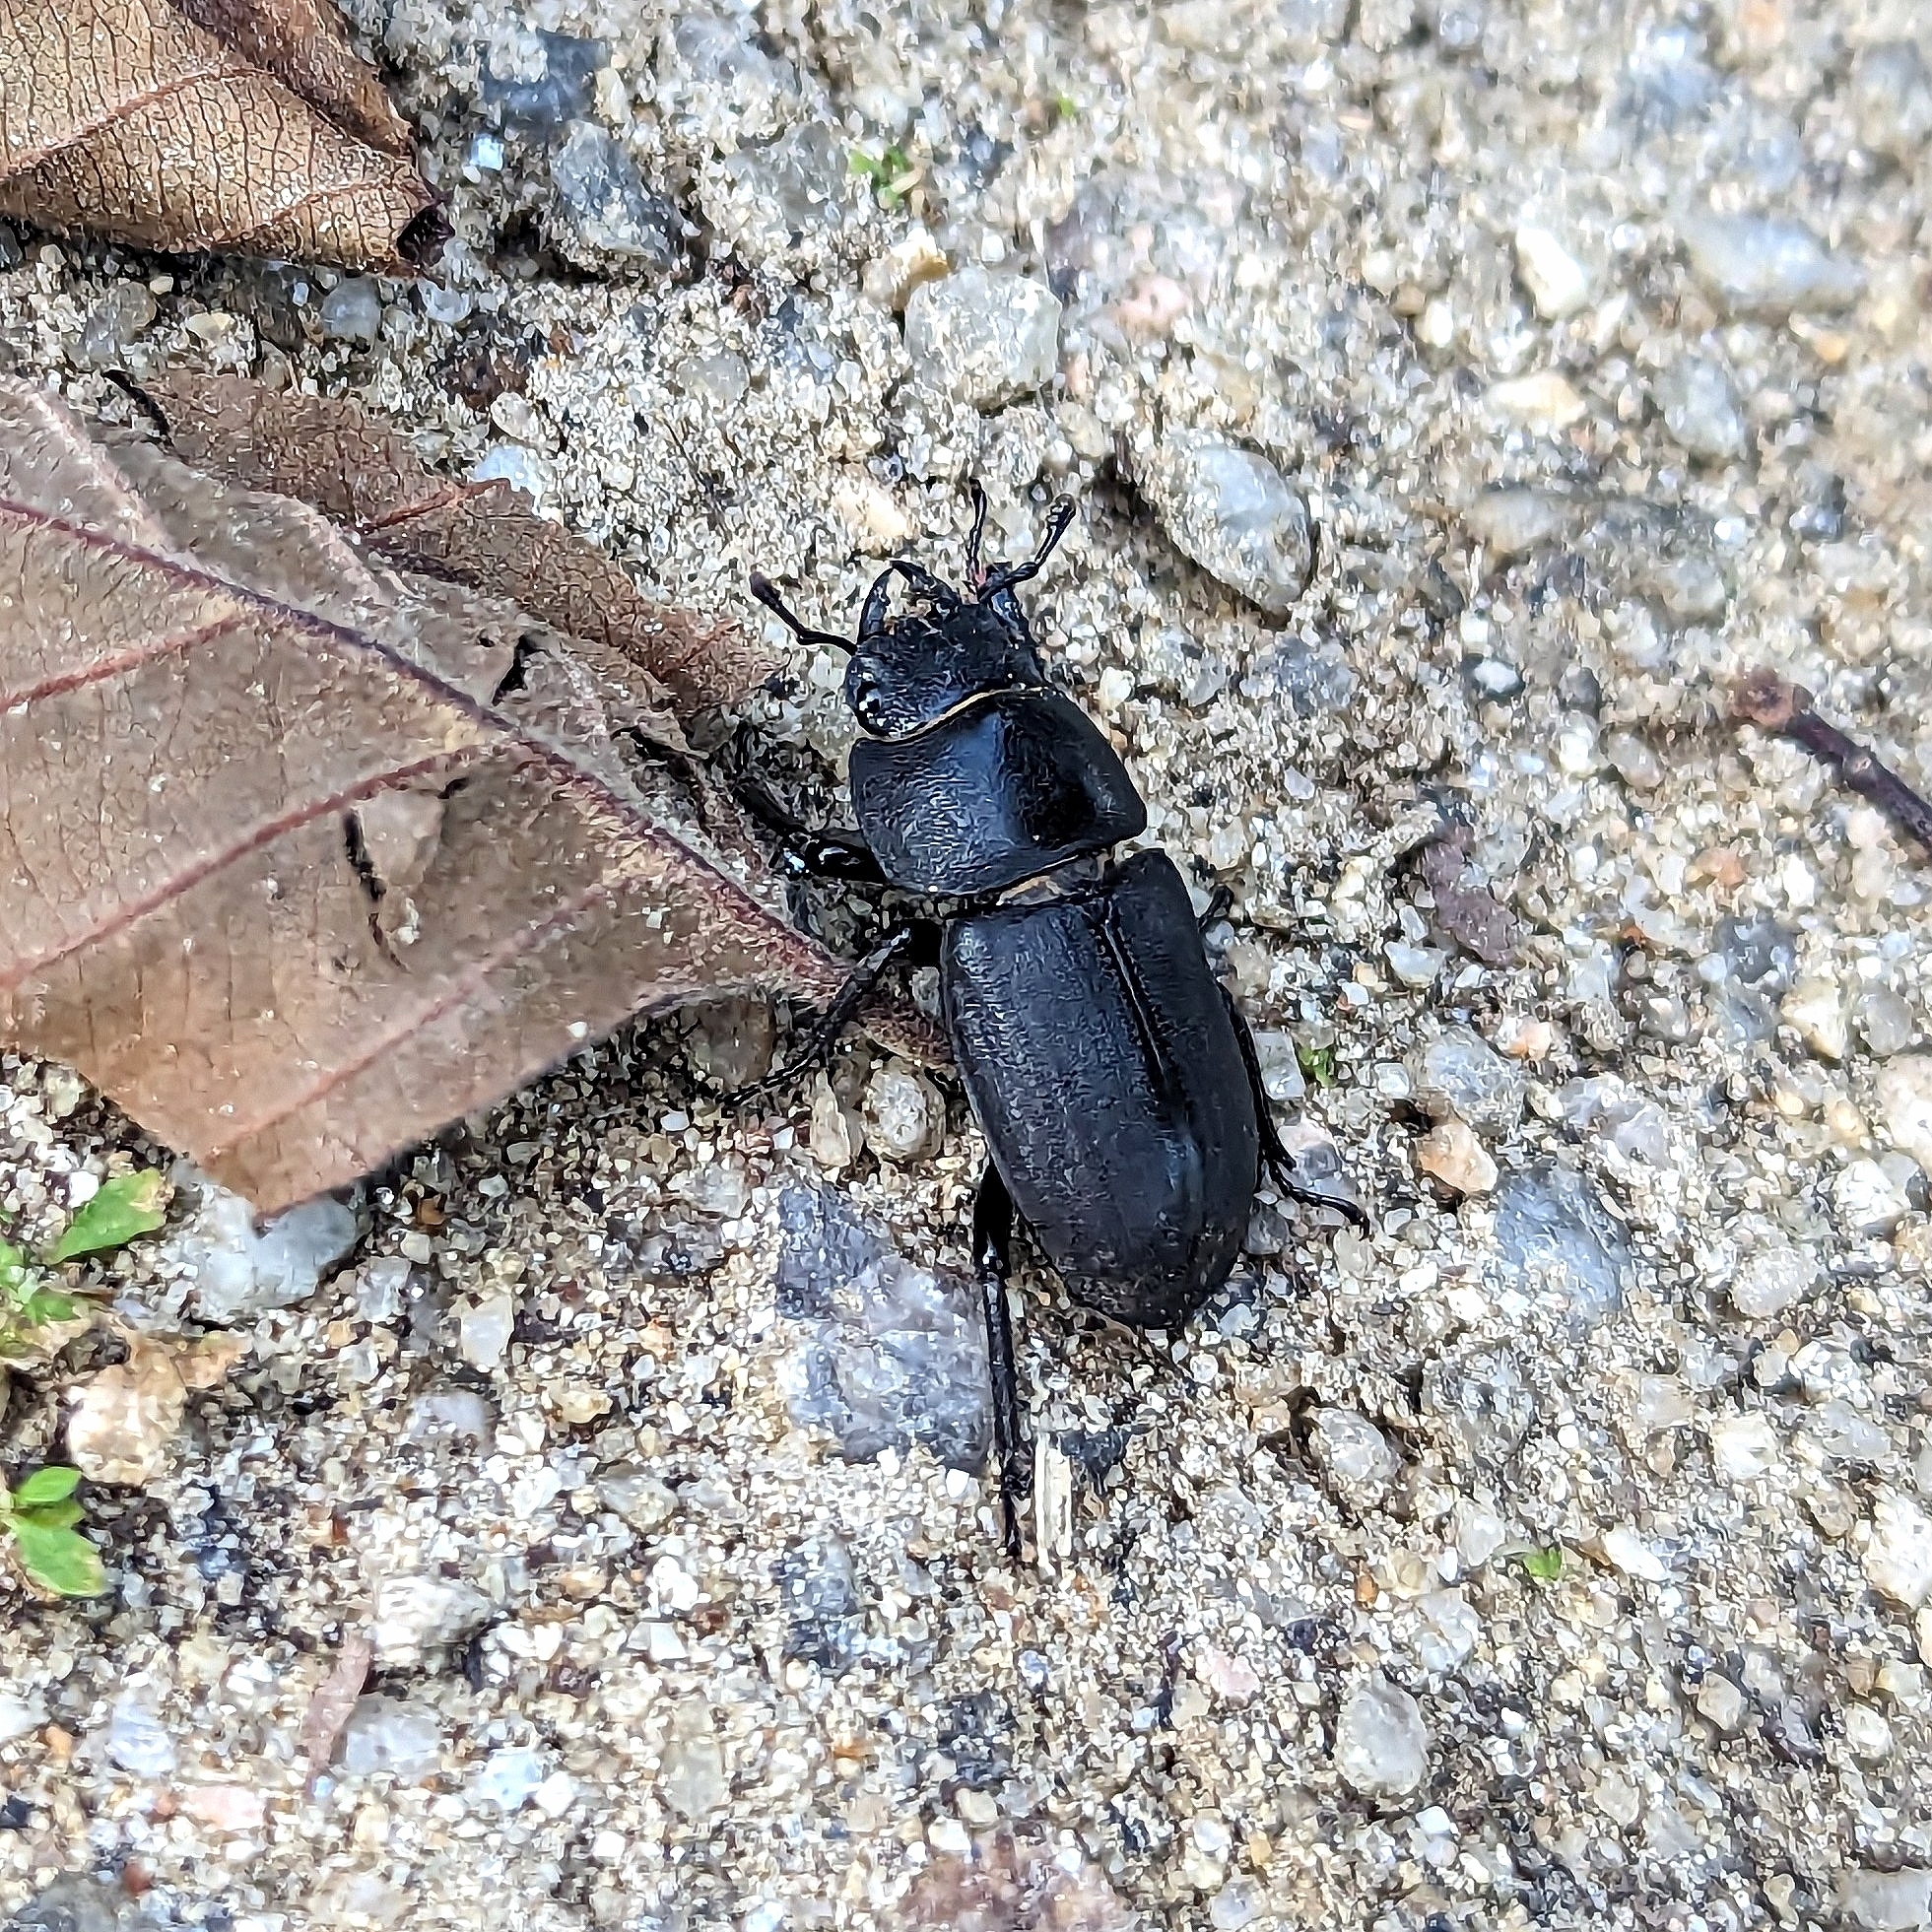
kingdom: Animalia
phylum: Arthropoda
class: Insecta
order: Coleoptera
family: Lucanidae
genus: Dorcus
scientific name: Dorcus parallelipipedus
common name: Lesser stag beetle
